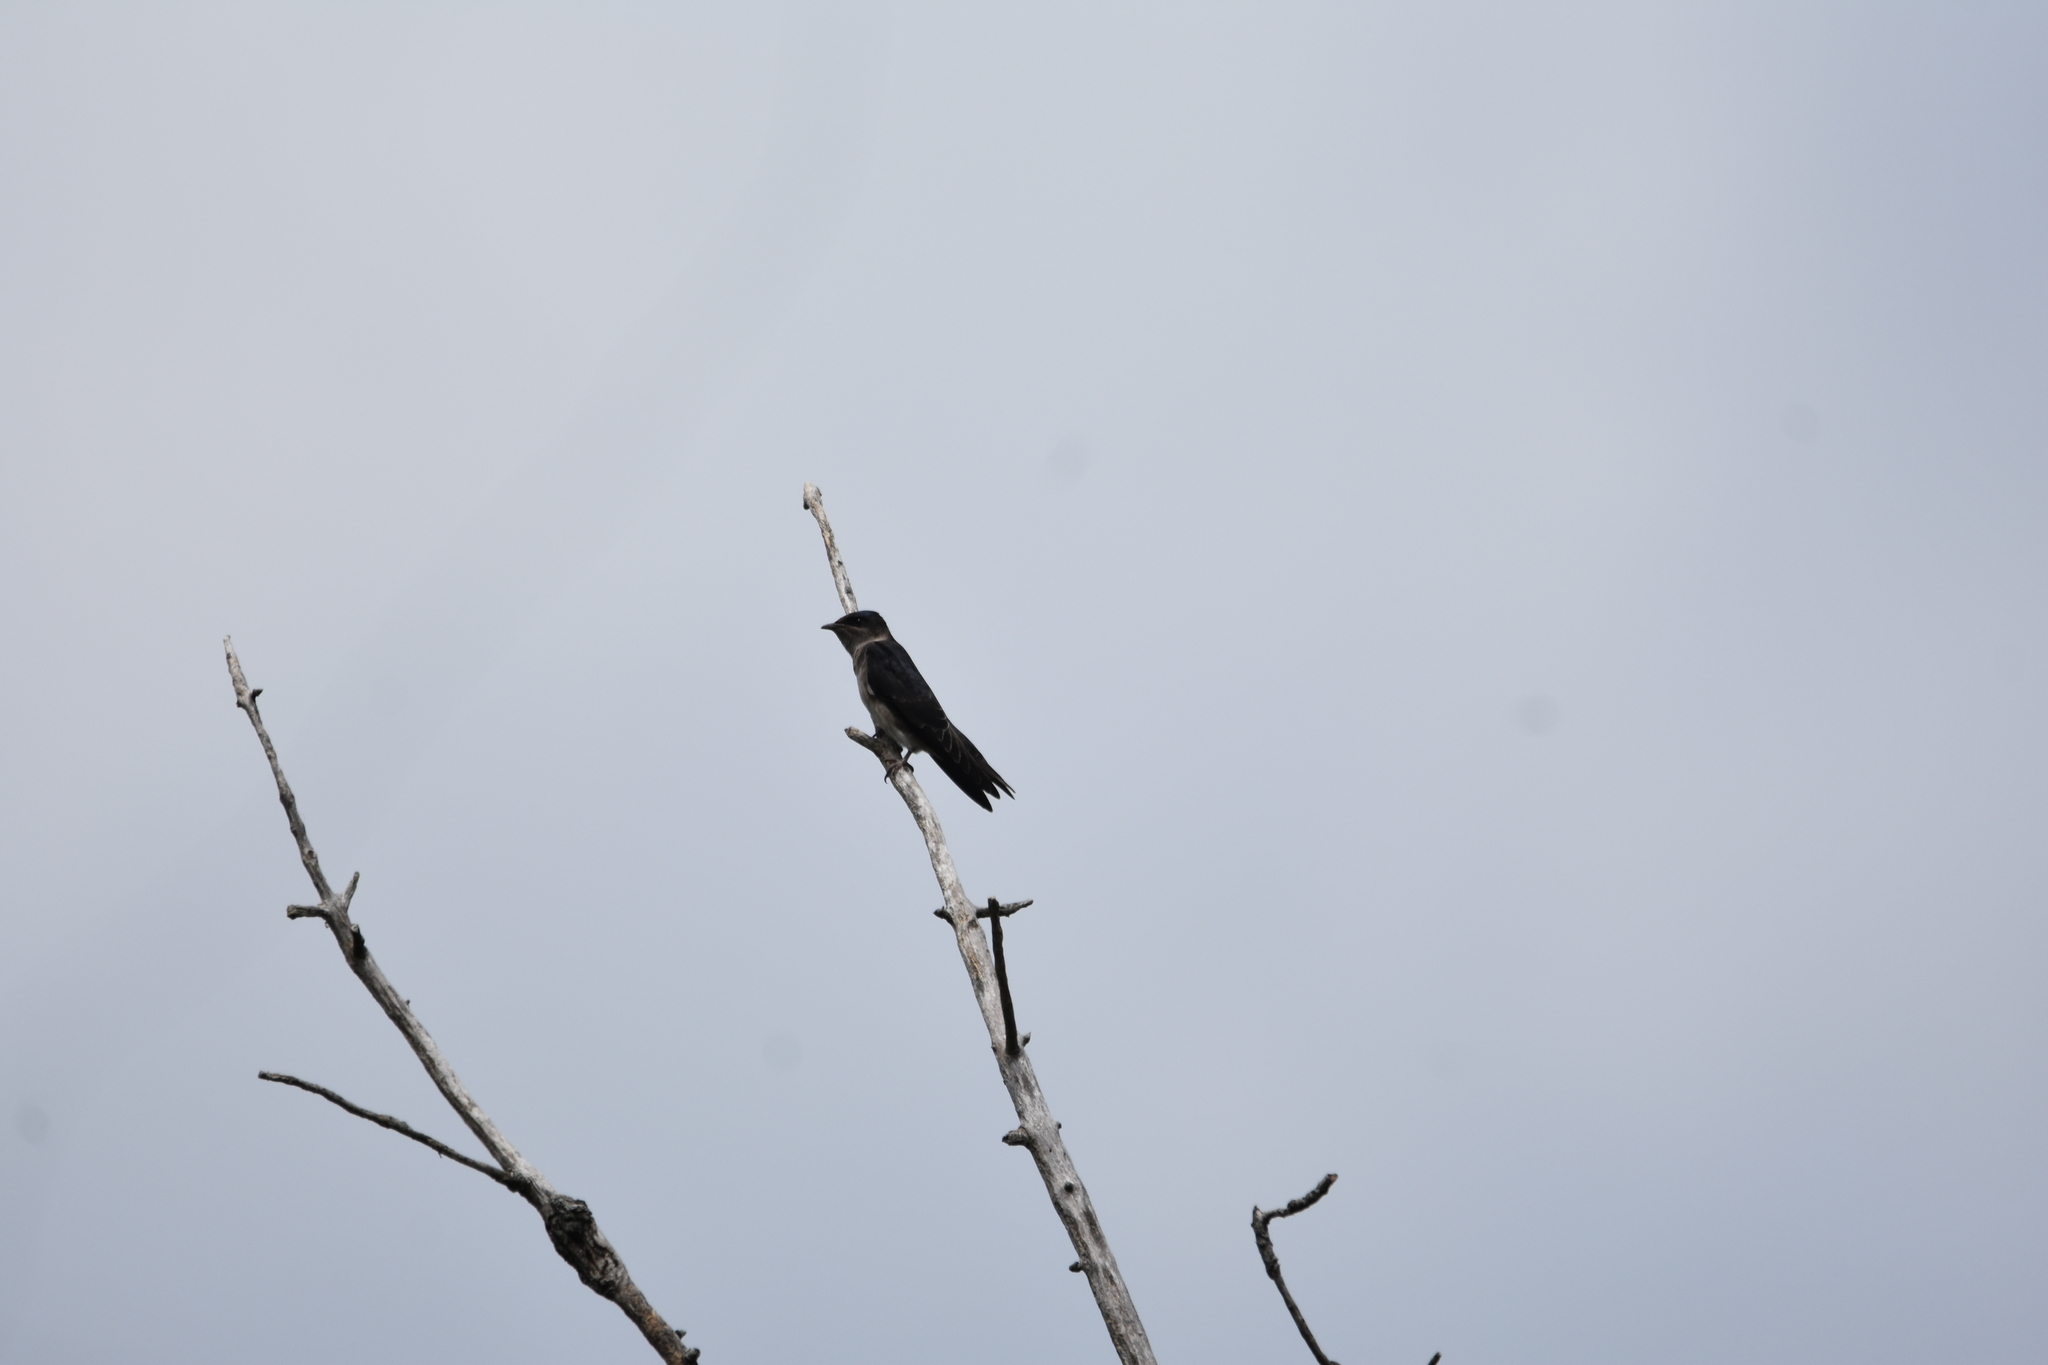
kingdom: Animalia
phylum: Chordata
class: Aves
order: Passeriformes
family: Hirundinidae
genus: Progne
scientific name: Progne subis
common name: Purple martin
